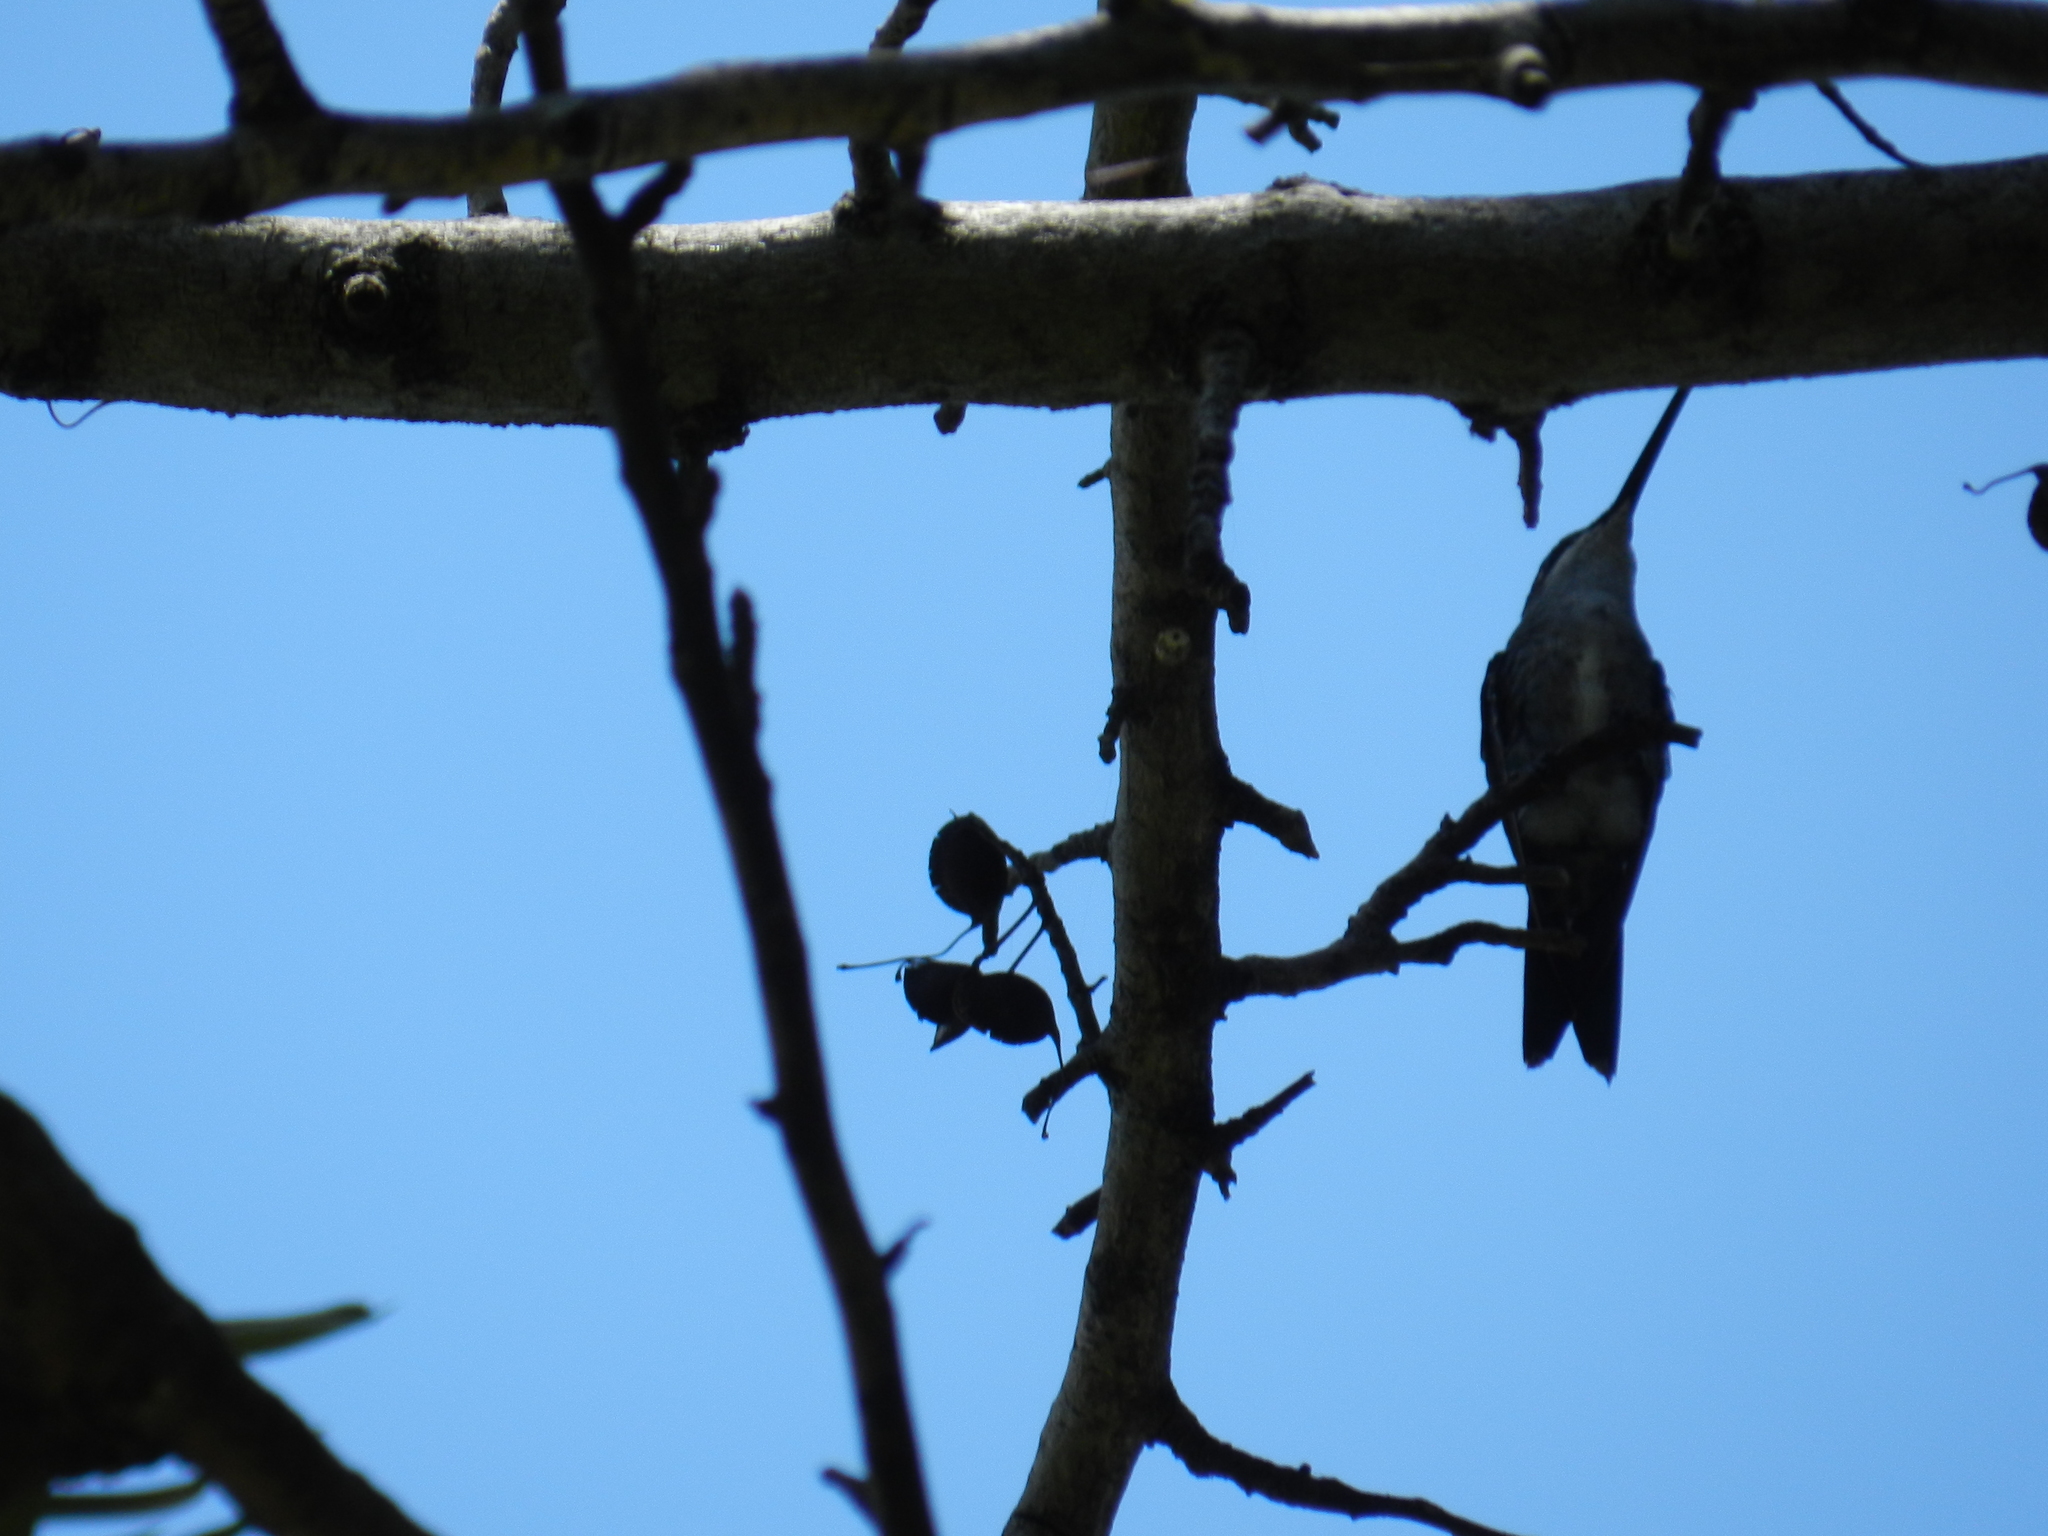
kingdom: Animalia
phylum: Chordata
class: Aves
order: Apodiformes
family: Trochilidae
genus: Heliomaster
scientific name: Heliomaster furcifer
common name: Blue-tufted starthroat
